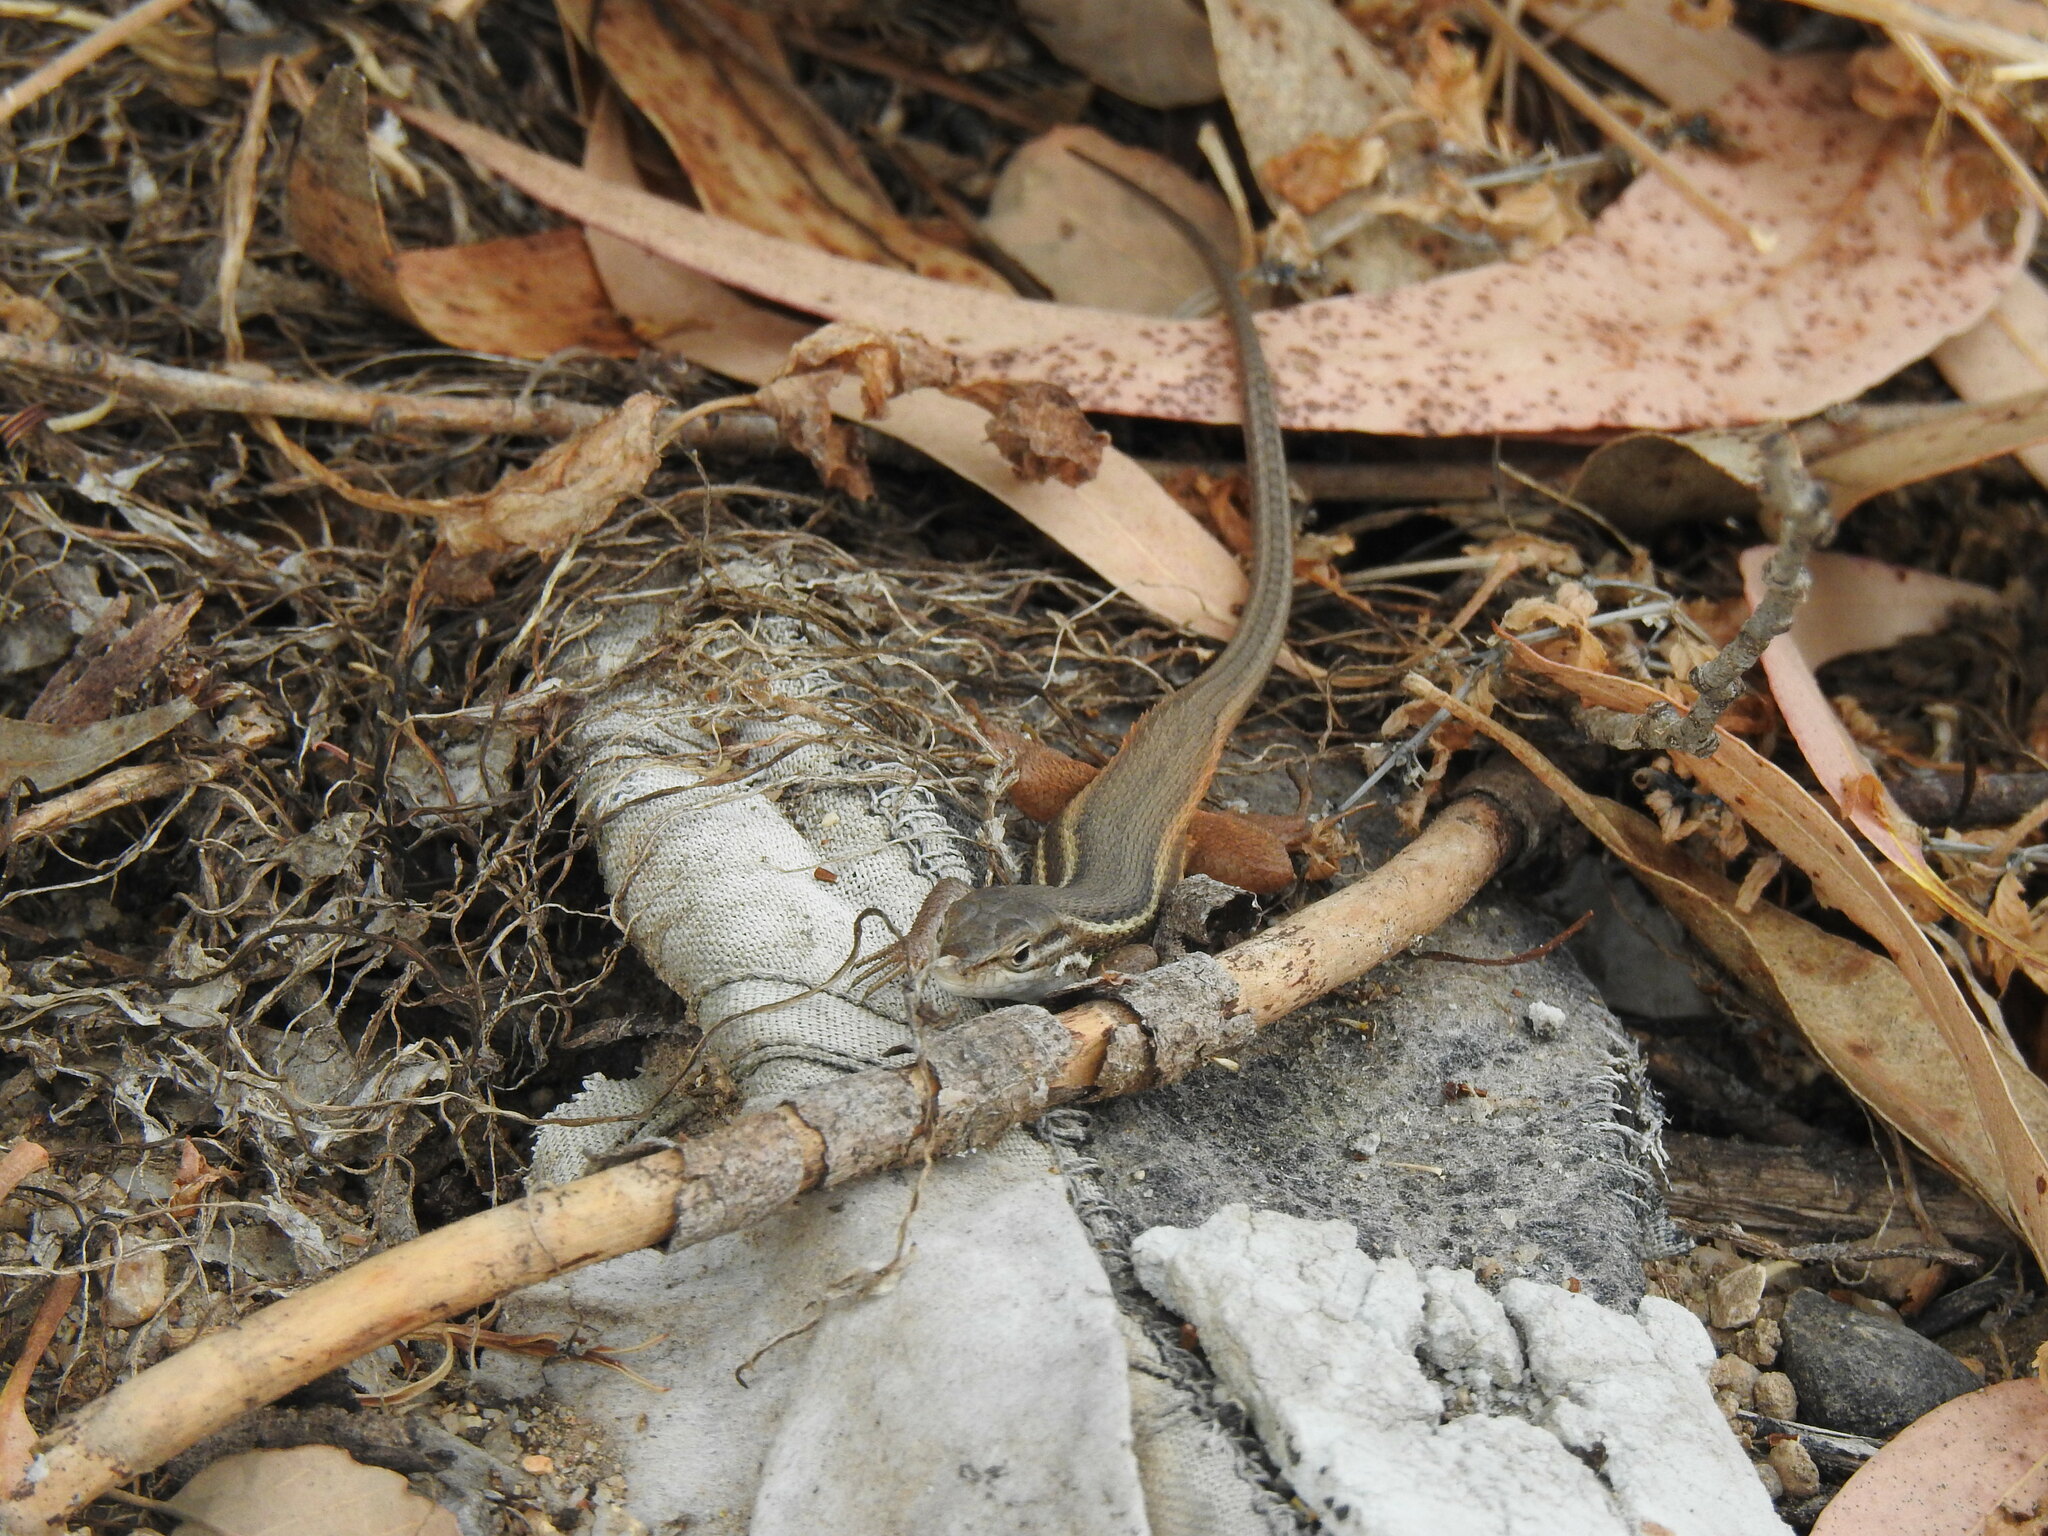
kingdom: Animalia
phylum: Chordata
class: Squamata
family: Lacertidae
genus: Psammodromus
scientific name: Psammodromus algirus
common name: Algerian psammodromus
